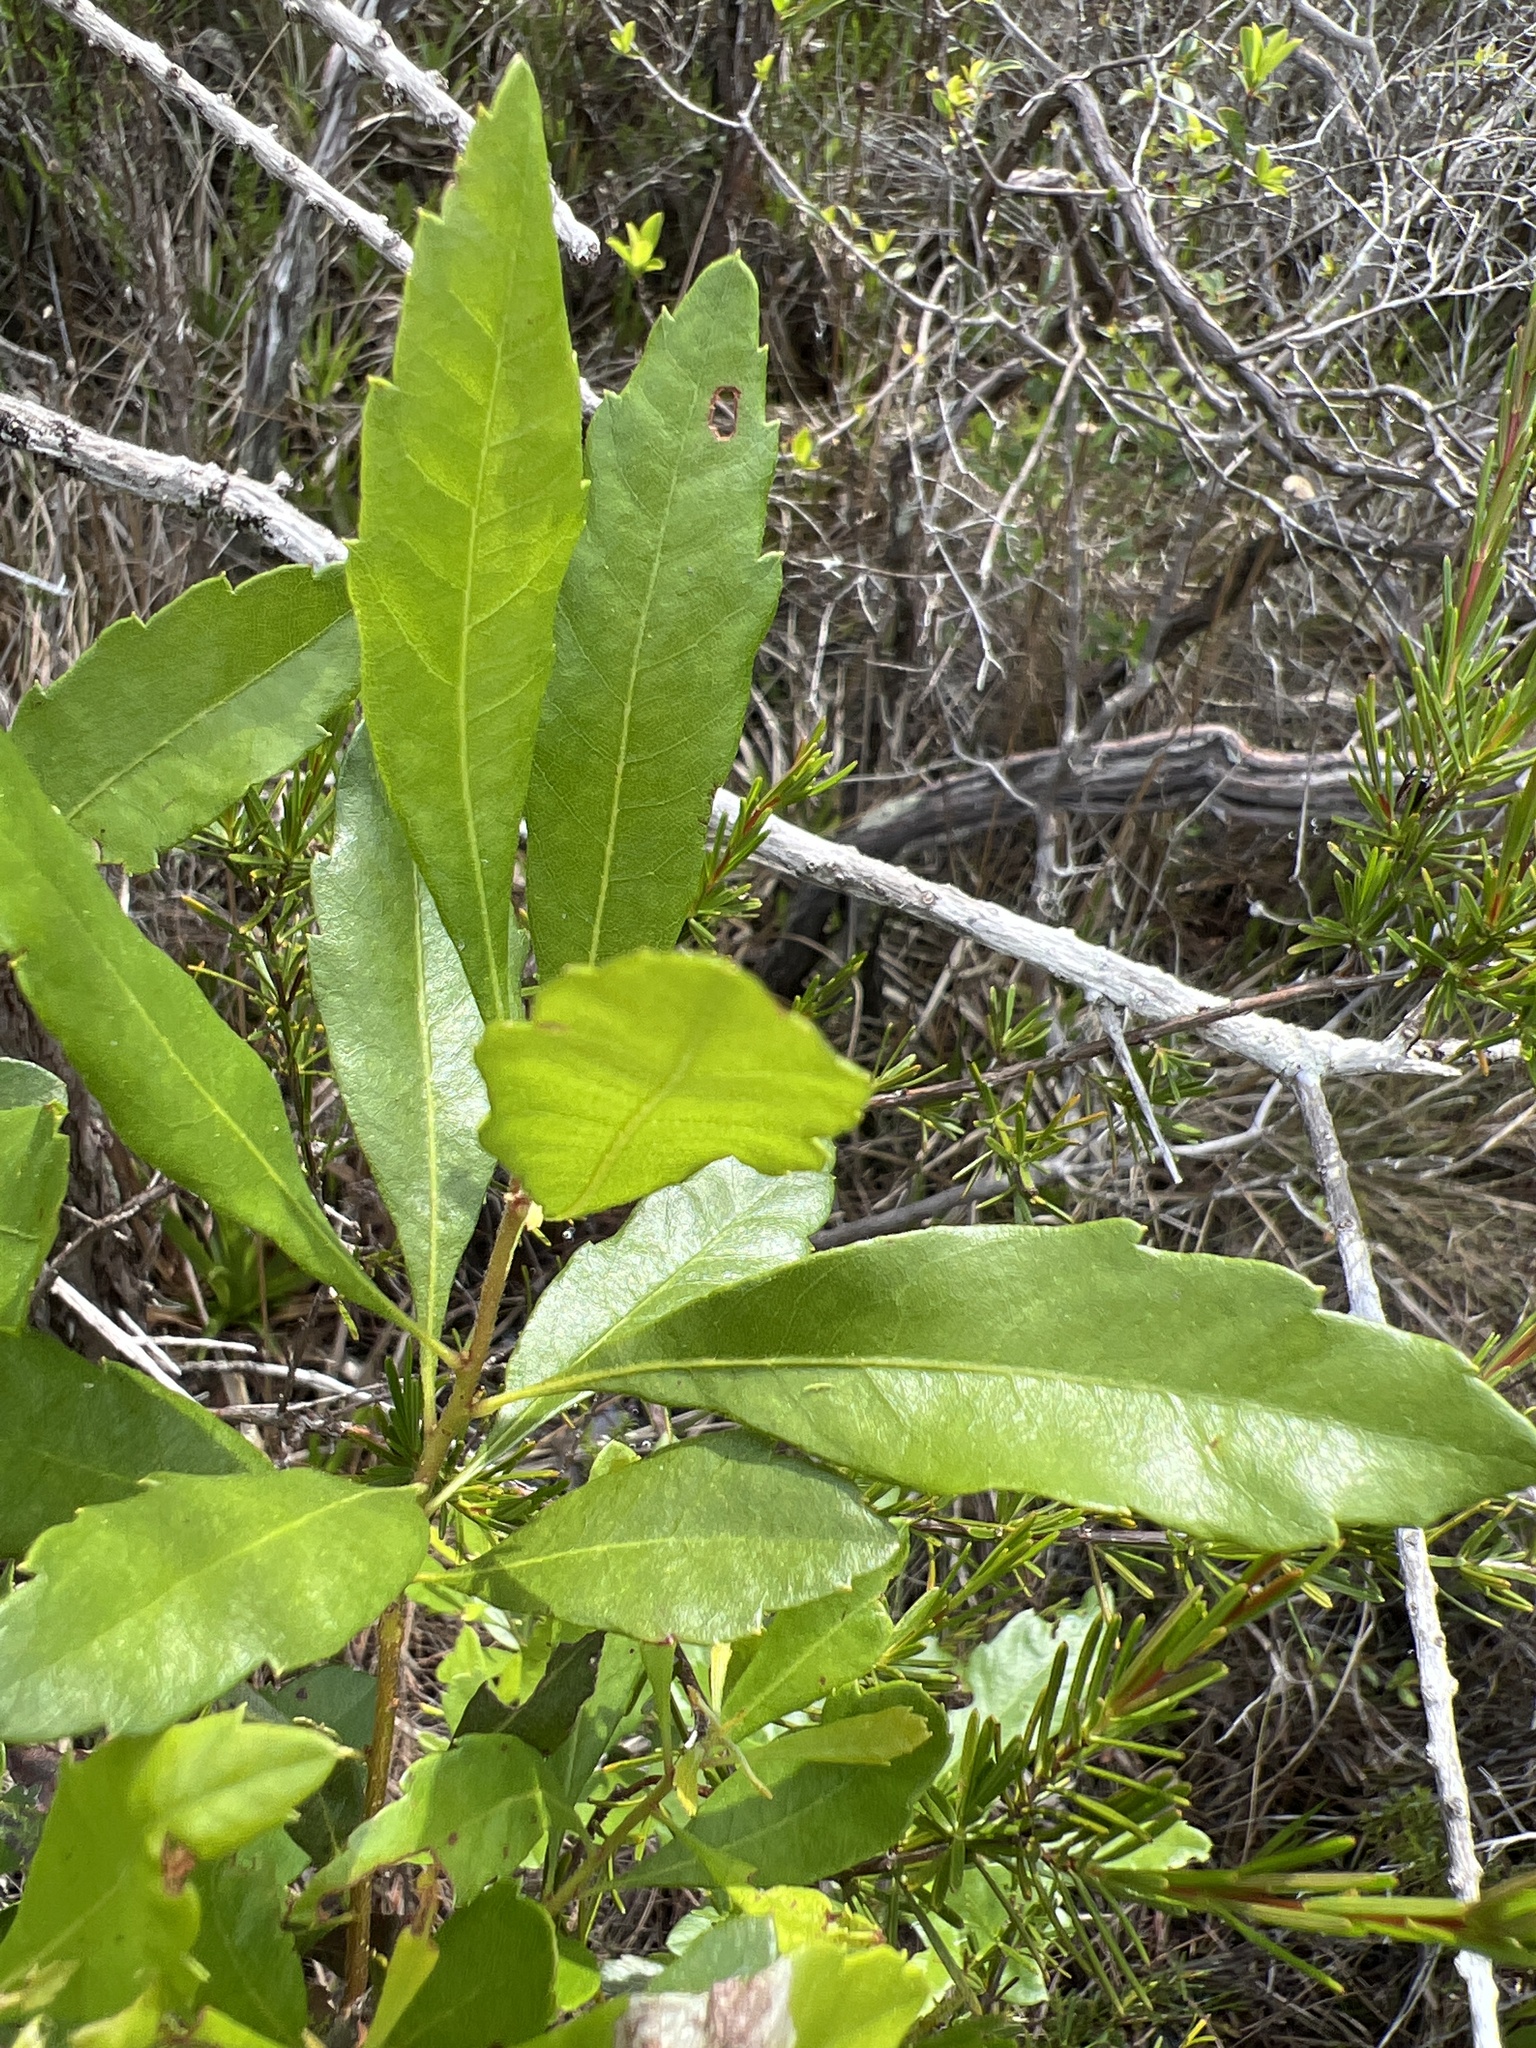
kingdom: Plantae
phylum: Tracheophyta
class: Magnoliopsida
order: Fagales
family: Myricaceae
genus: Morella
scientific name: Morella cerifera
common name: Wax myrtle
